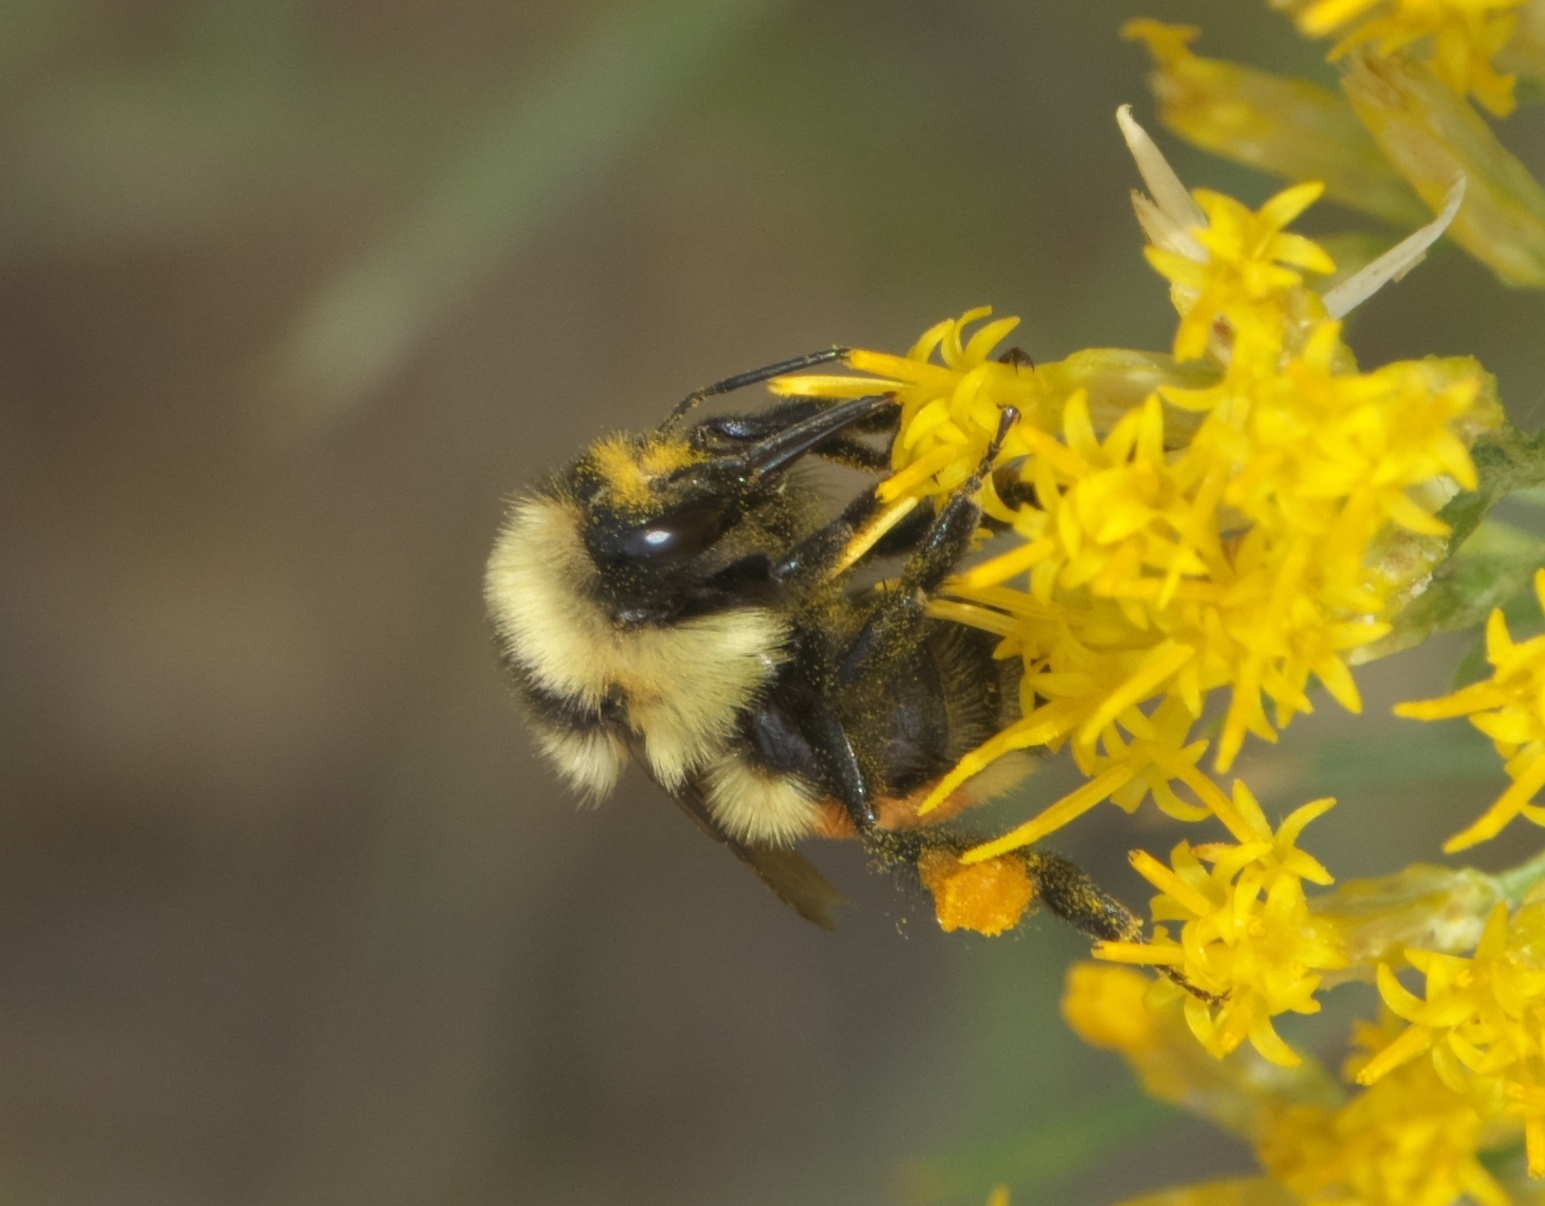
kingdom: Animalia
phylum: Arthropoda
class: Insecta
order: Hymenoptera
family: Apidae
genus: Bombus
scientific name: Bombus huntii
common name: Hunt bumble bee
